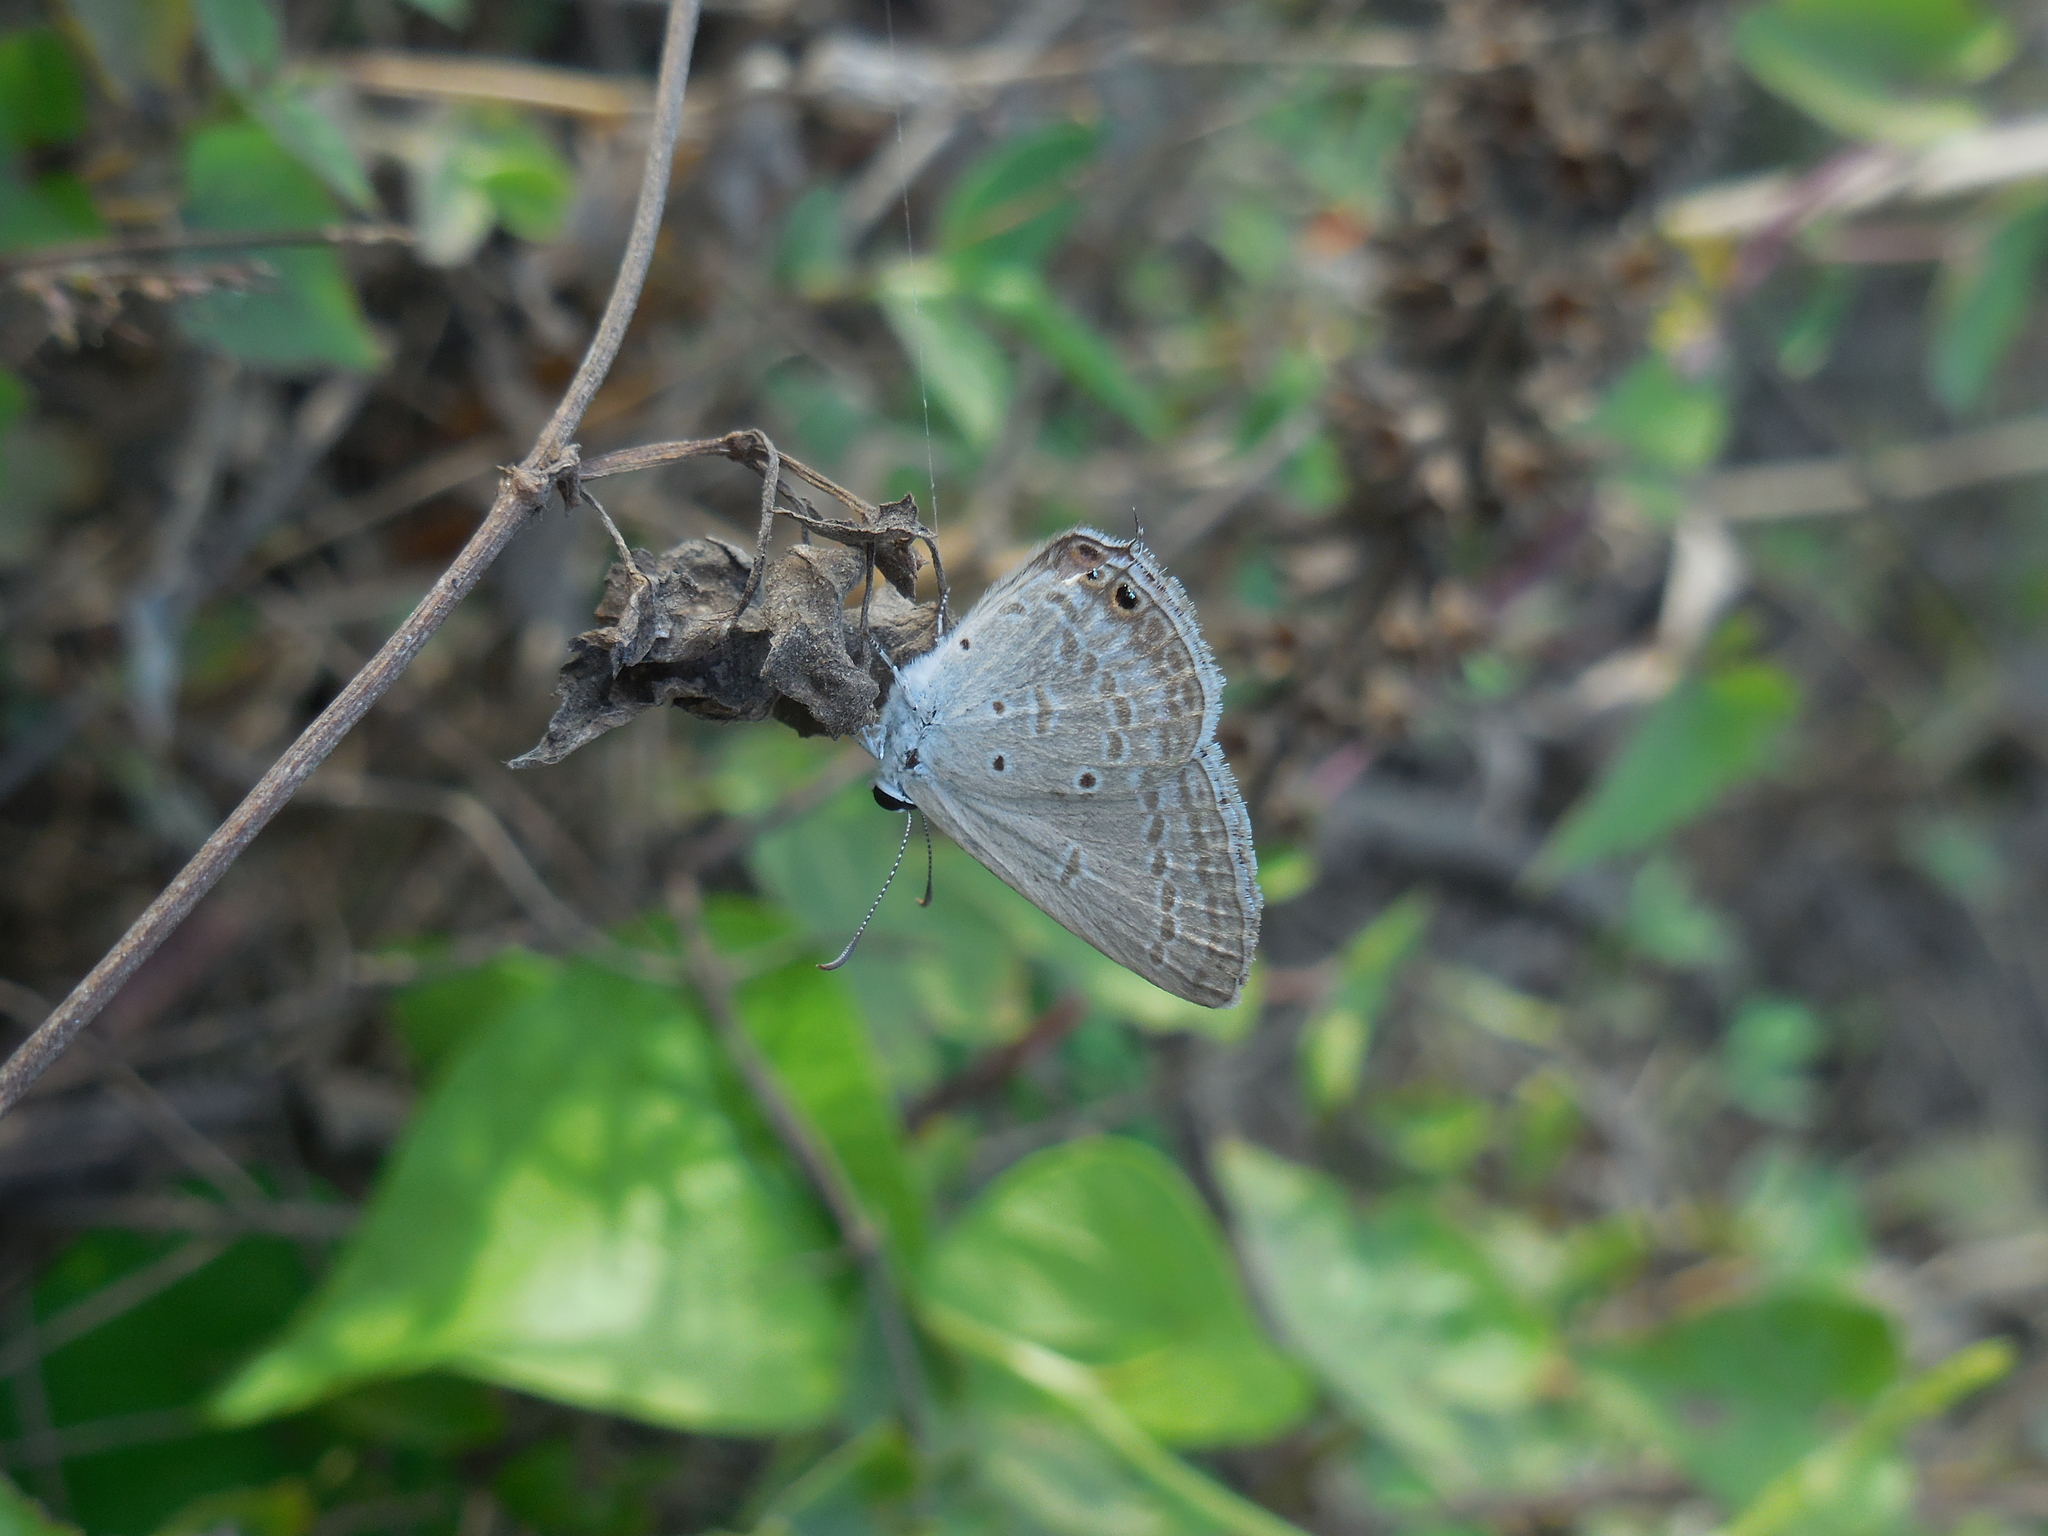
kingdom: Animalia
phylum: Arthropoda
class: Insecta
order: Lepidoptera
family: Lycaenidae
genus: Euchrysops
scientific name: Euchrysops cnejus
